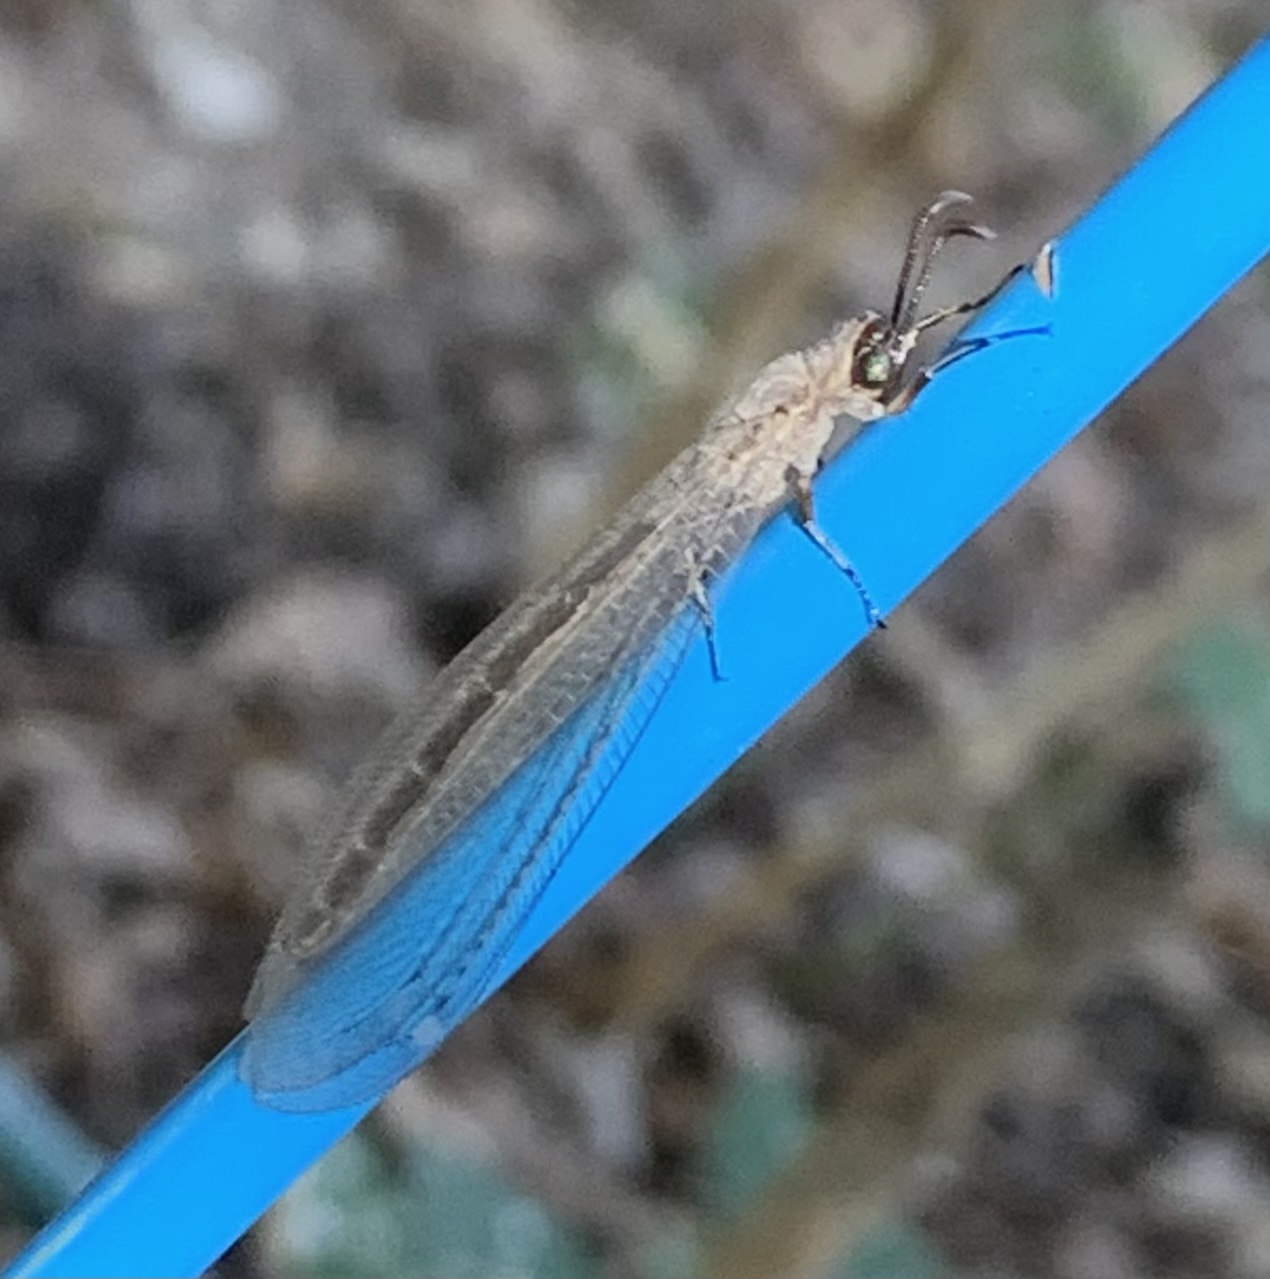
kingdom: Animalia
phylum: Arthropoda
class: Insecta
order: Neuroptera
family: Myrmeleontidae
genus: Myrmeleon
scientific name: Myrmeleon texanus
